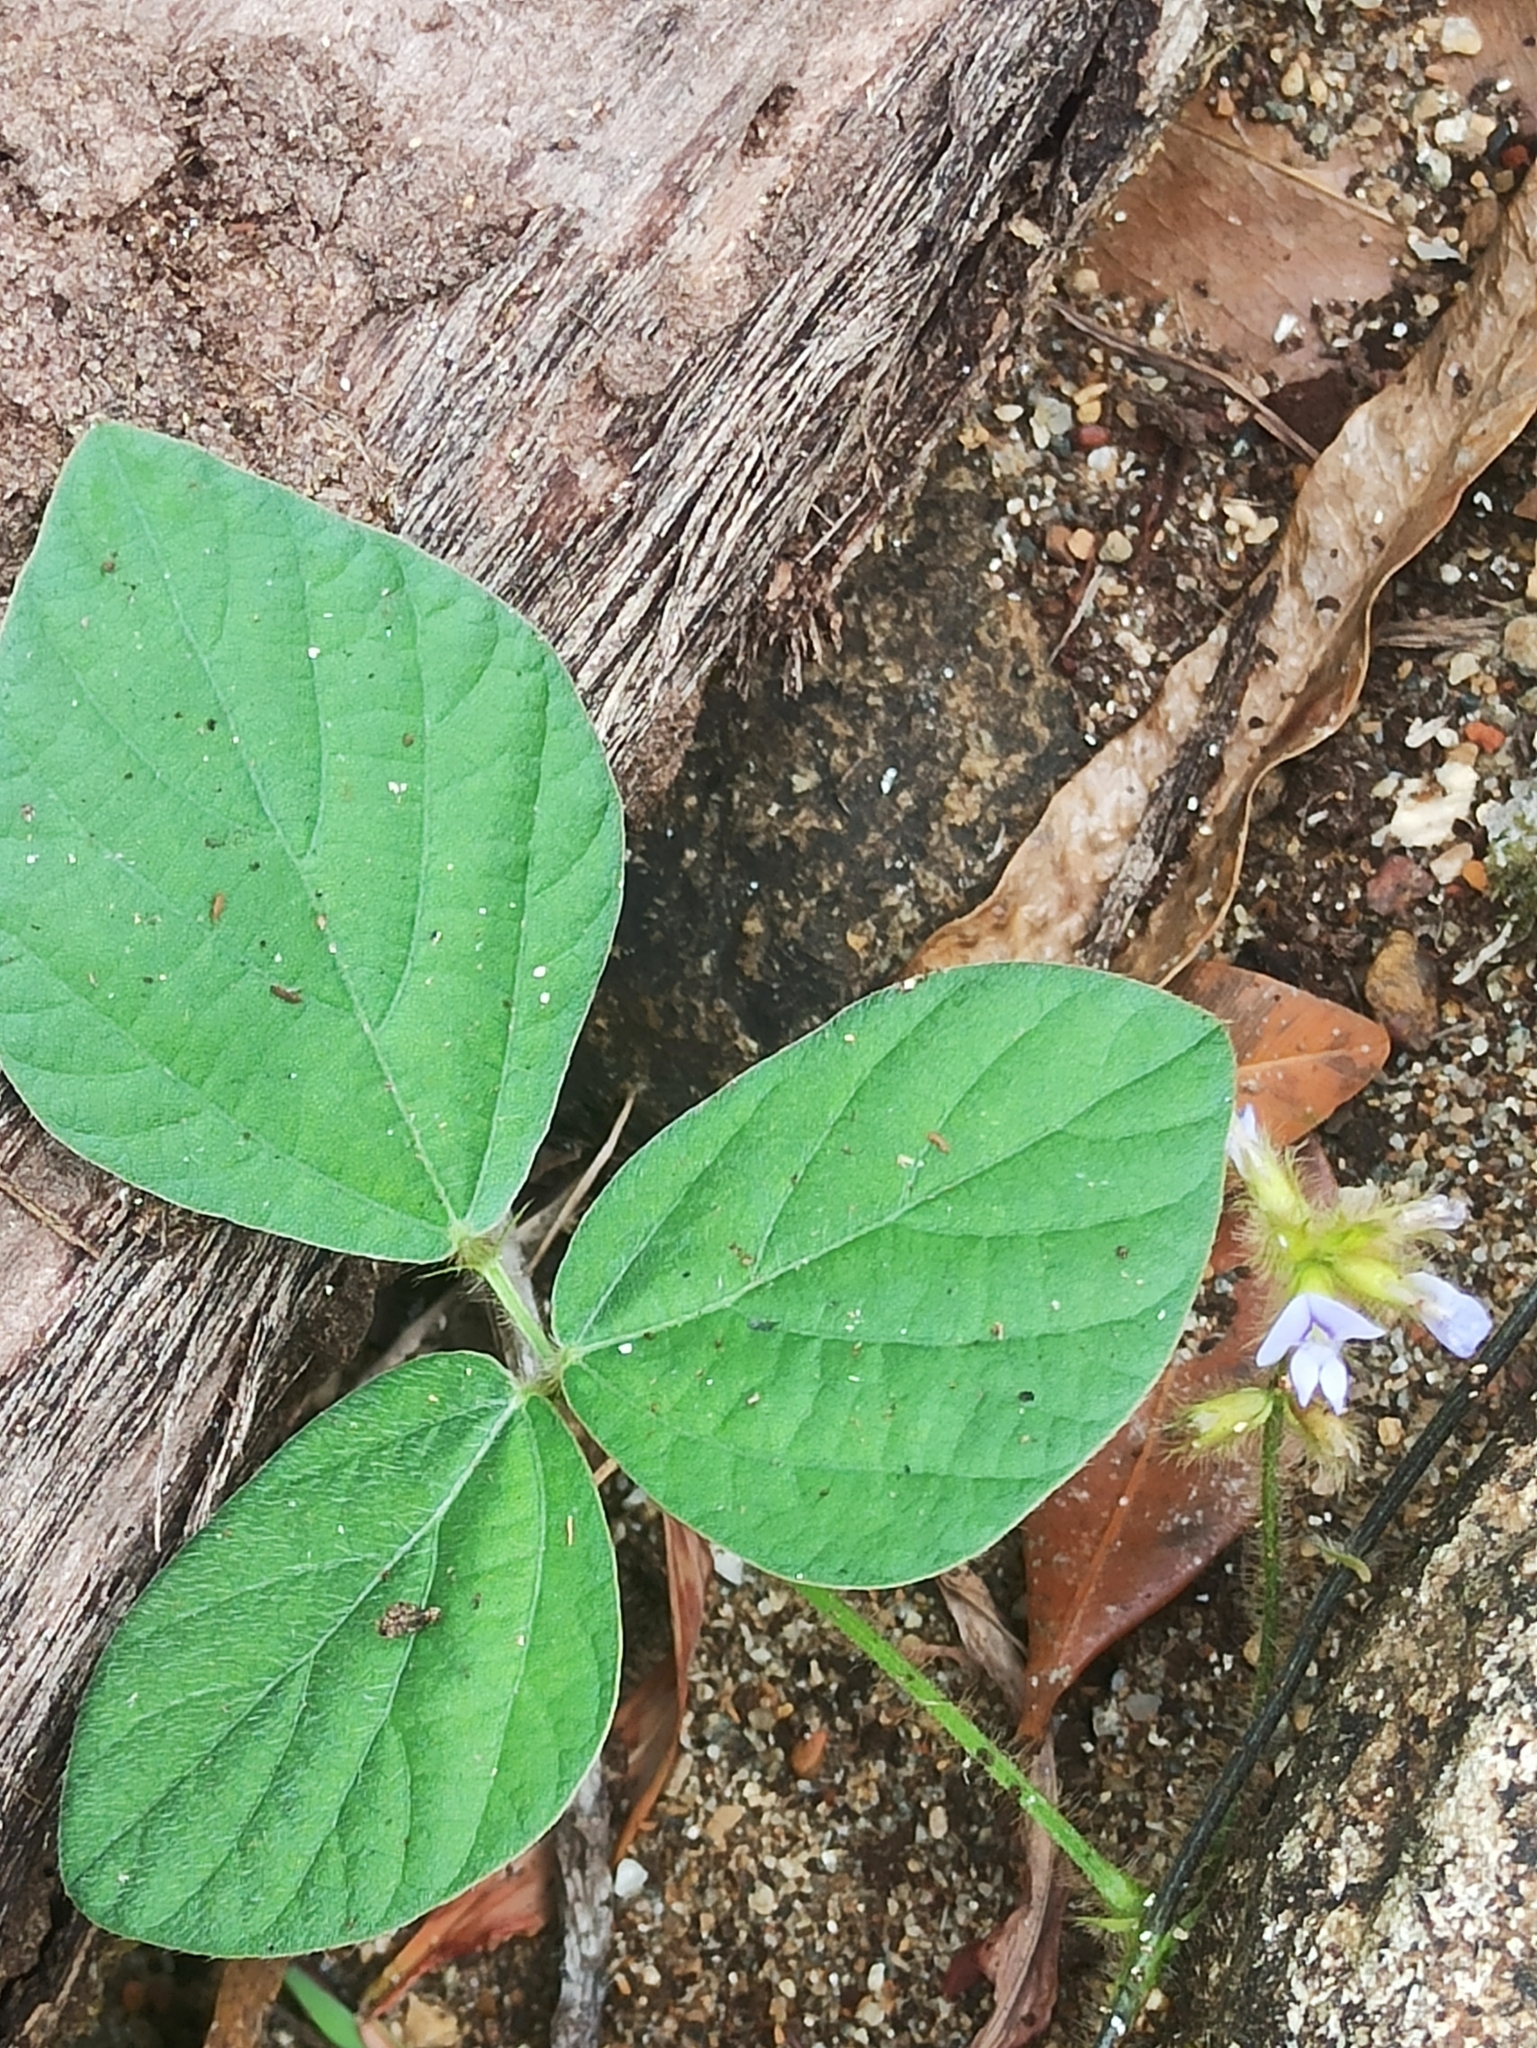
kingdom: Plantae
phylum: Tracheophyta
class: Magnoliopsida
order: Fabales
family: Fabaceae
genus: Calopogonium
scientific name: Calopogonium mucunoides
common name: Calopo
